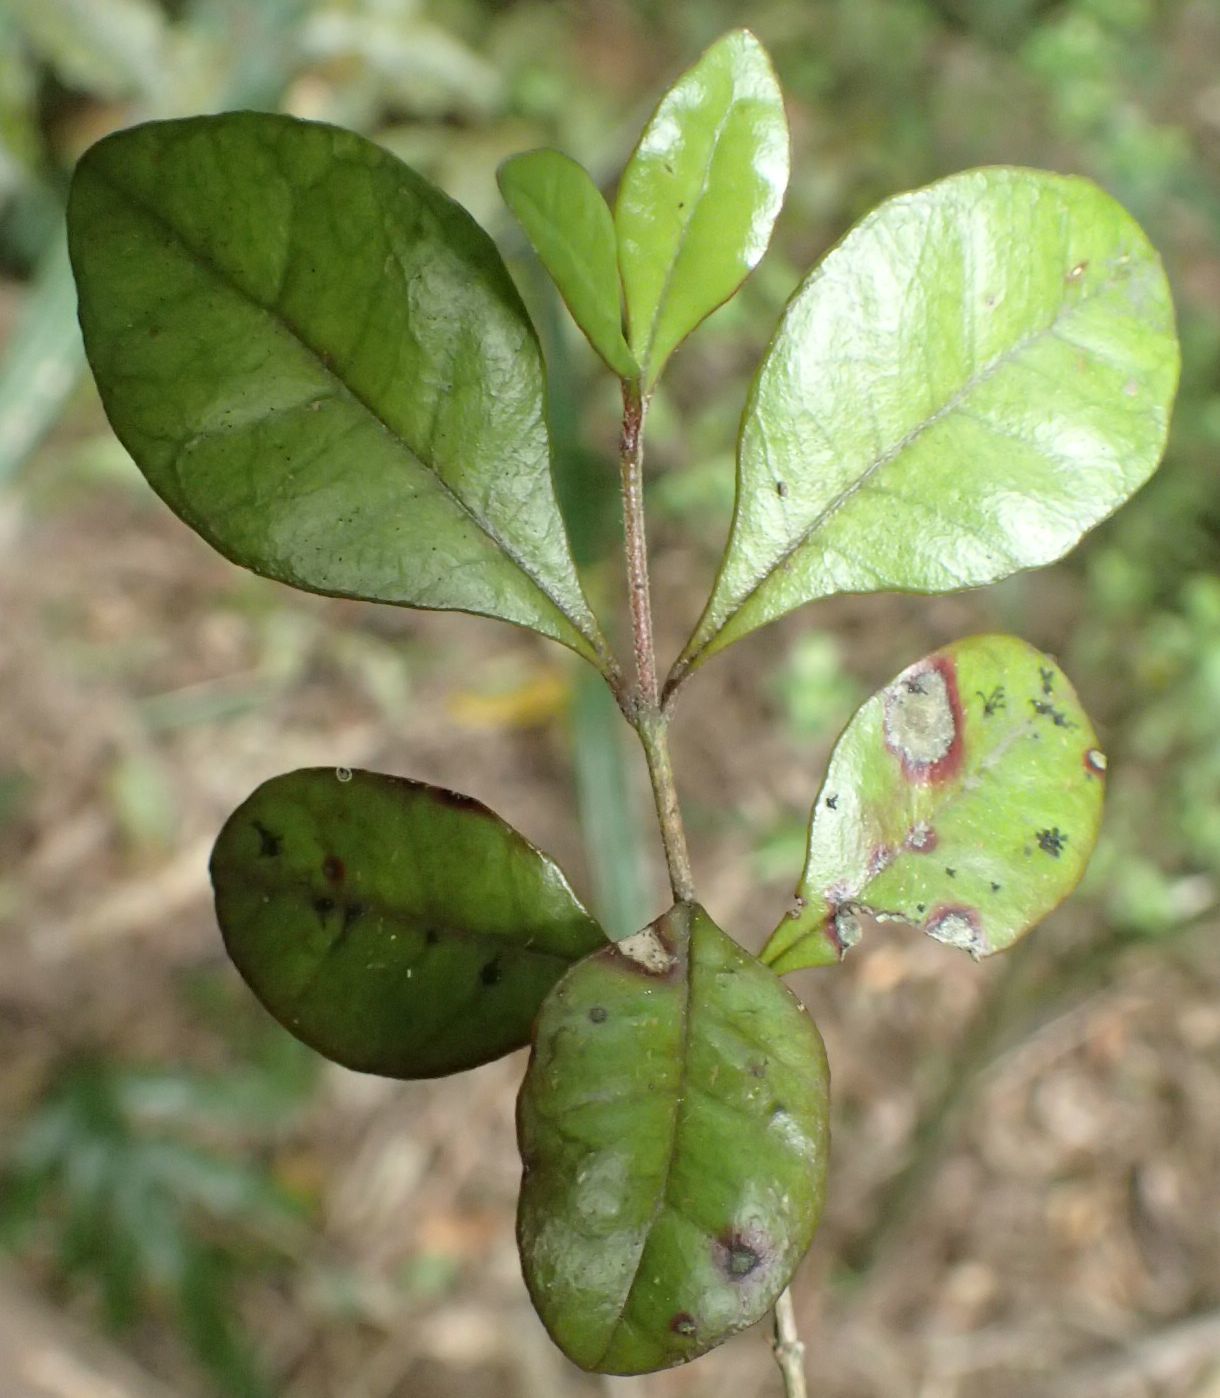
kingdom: Plantae
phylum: Tracheophyta
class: Magnoliopsida
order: Myrtales
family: Myrtaceae
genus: Lophomyrtus
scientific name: Lophomyrtus bullata
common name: Rama rama
